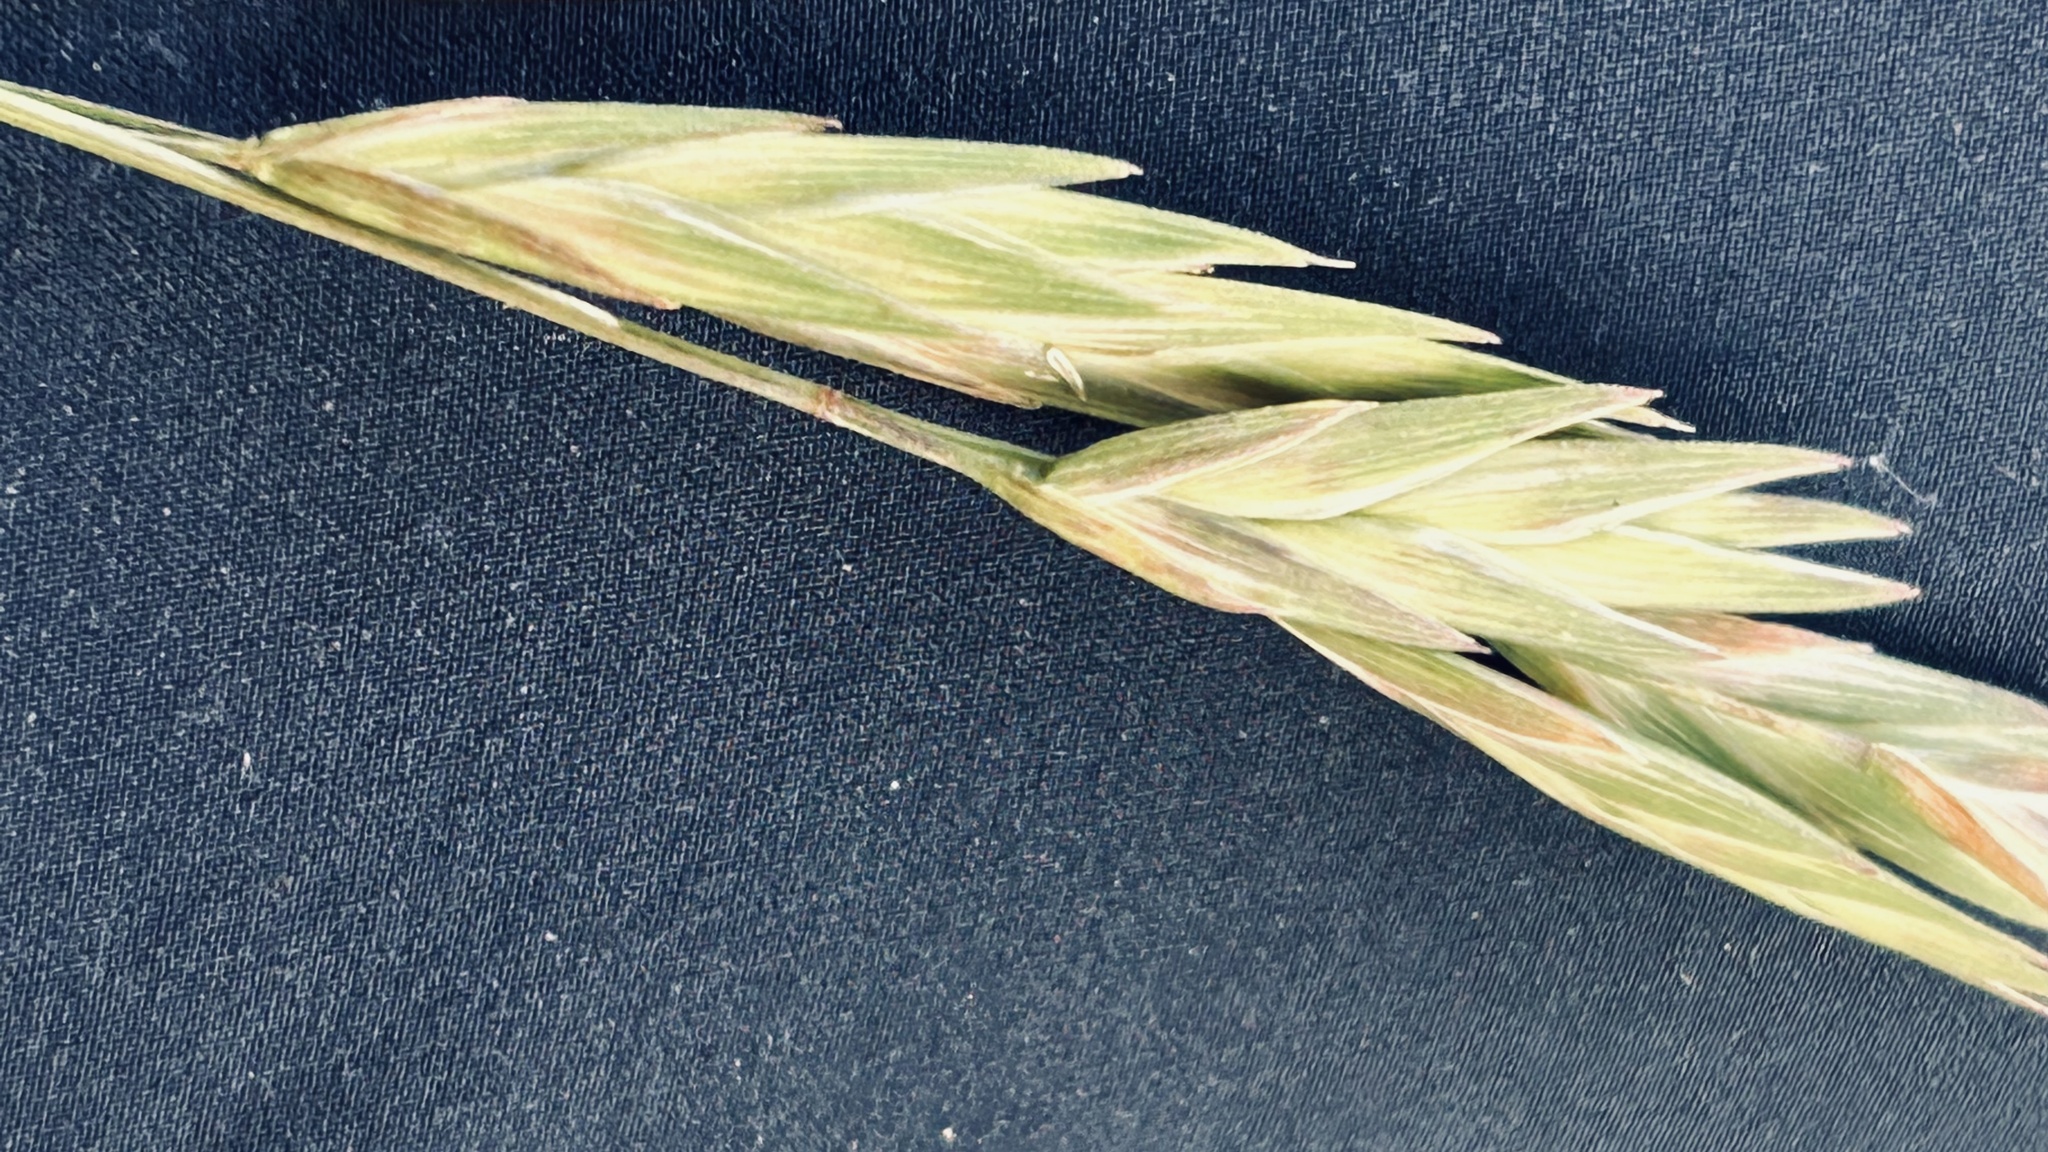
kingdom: Plantae
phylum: Tracheophyta
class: Liliopsida
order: Poales
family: Poaceae
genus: Bromus
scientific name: Bromus catharticus
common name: Rescuegrass
